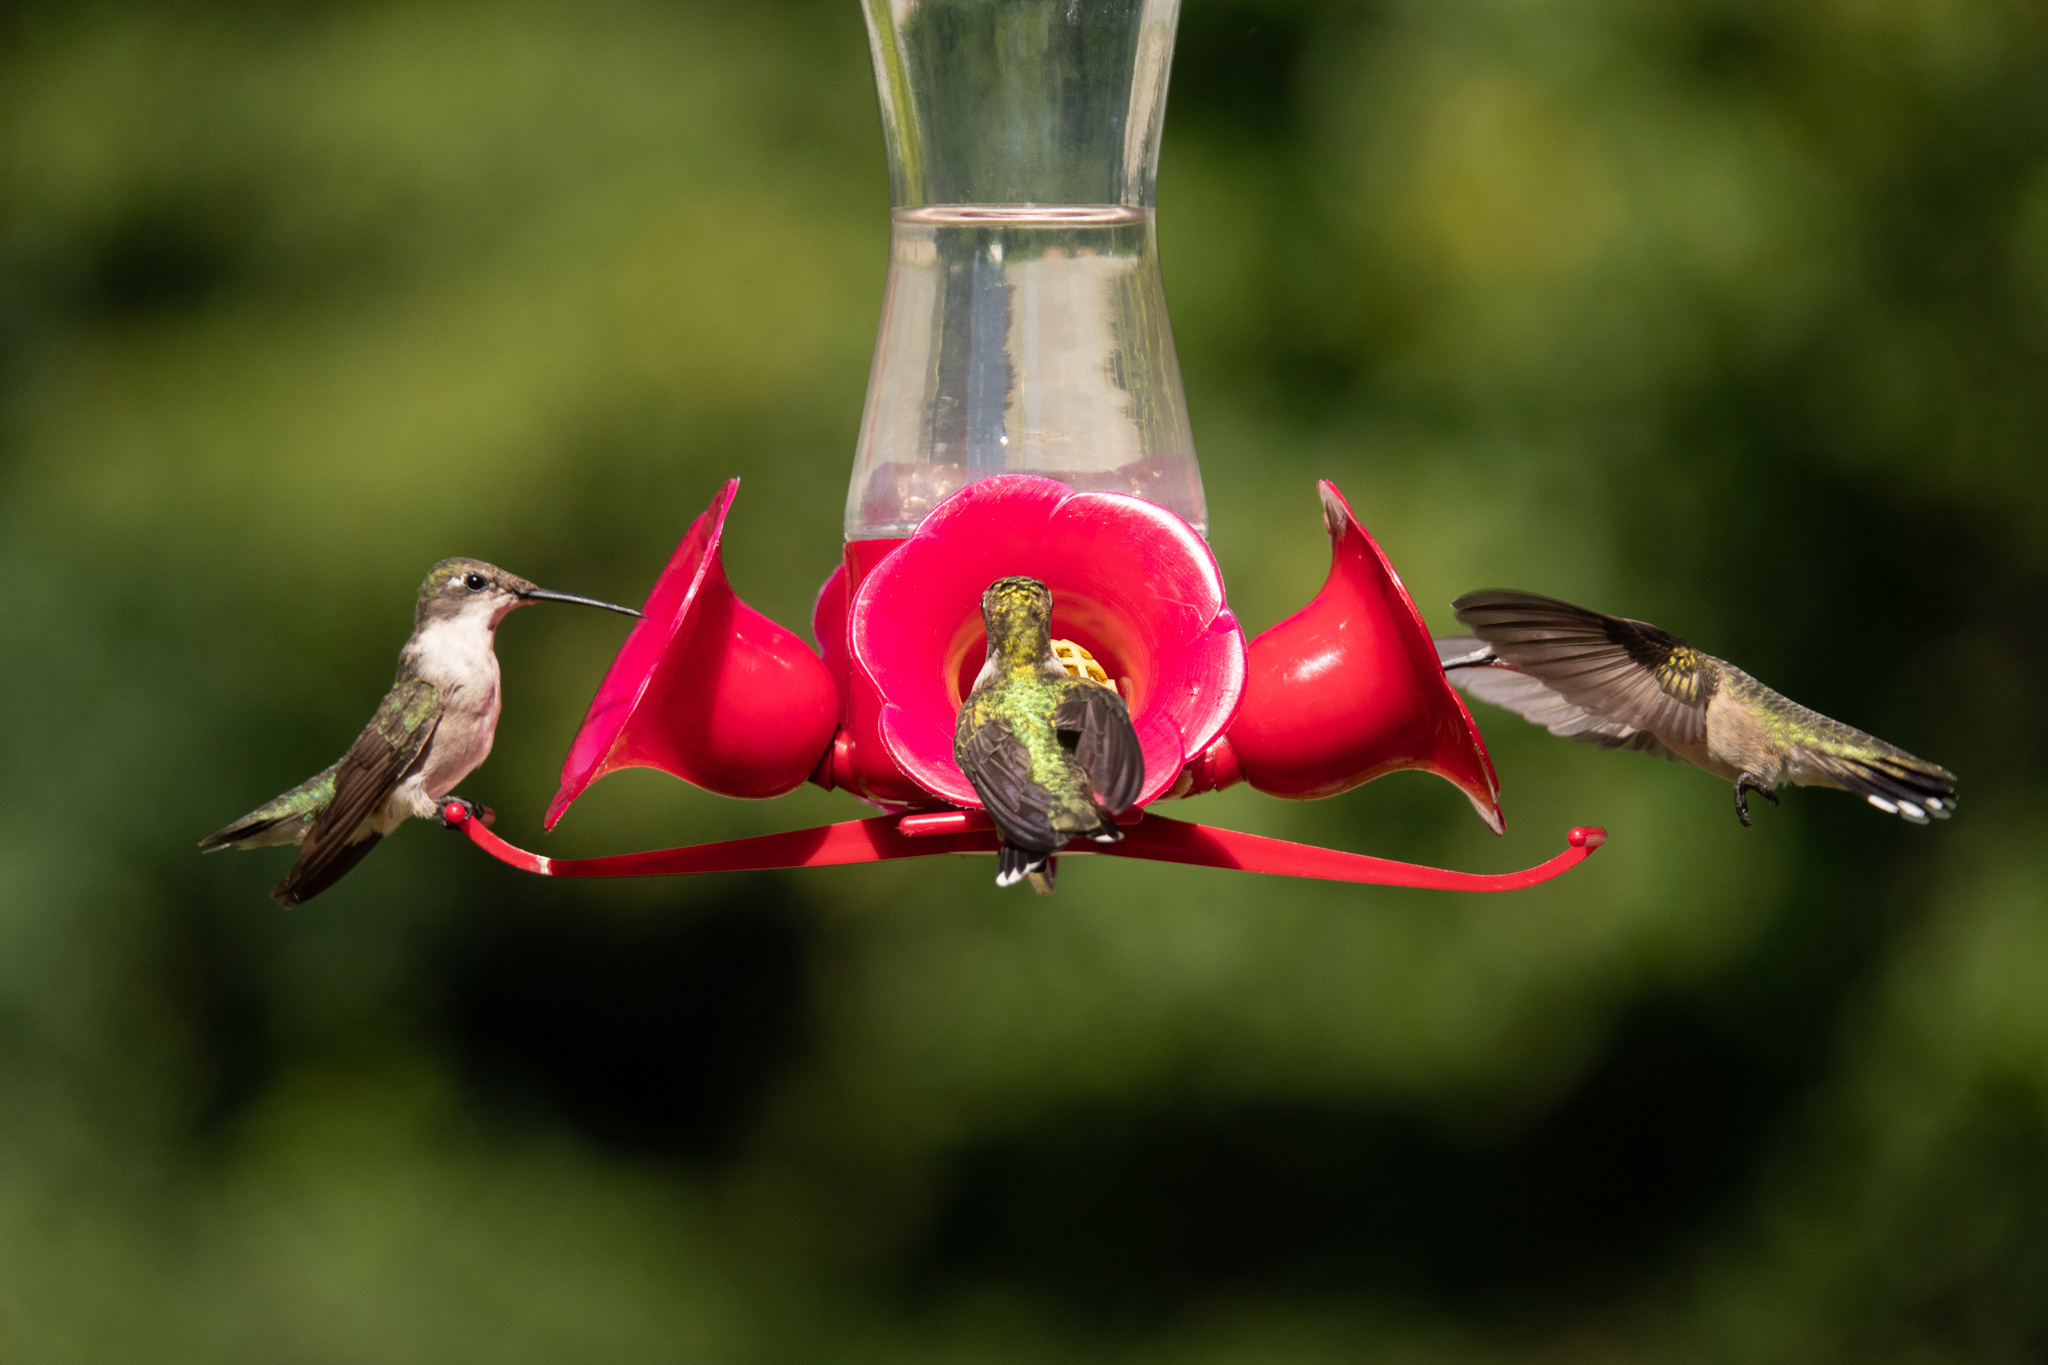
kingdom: Animalia
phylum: Chordata
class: Aves
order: Apodiformes
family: Trochilidae
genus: Archilochus
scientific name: Archilochus colubris
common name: Ruby-throated hummingbird
